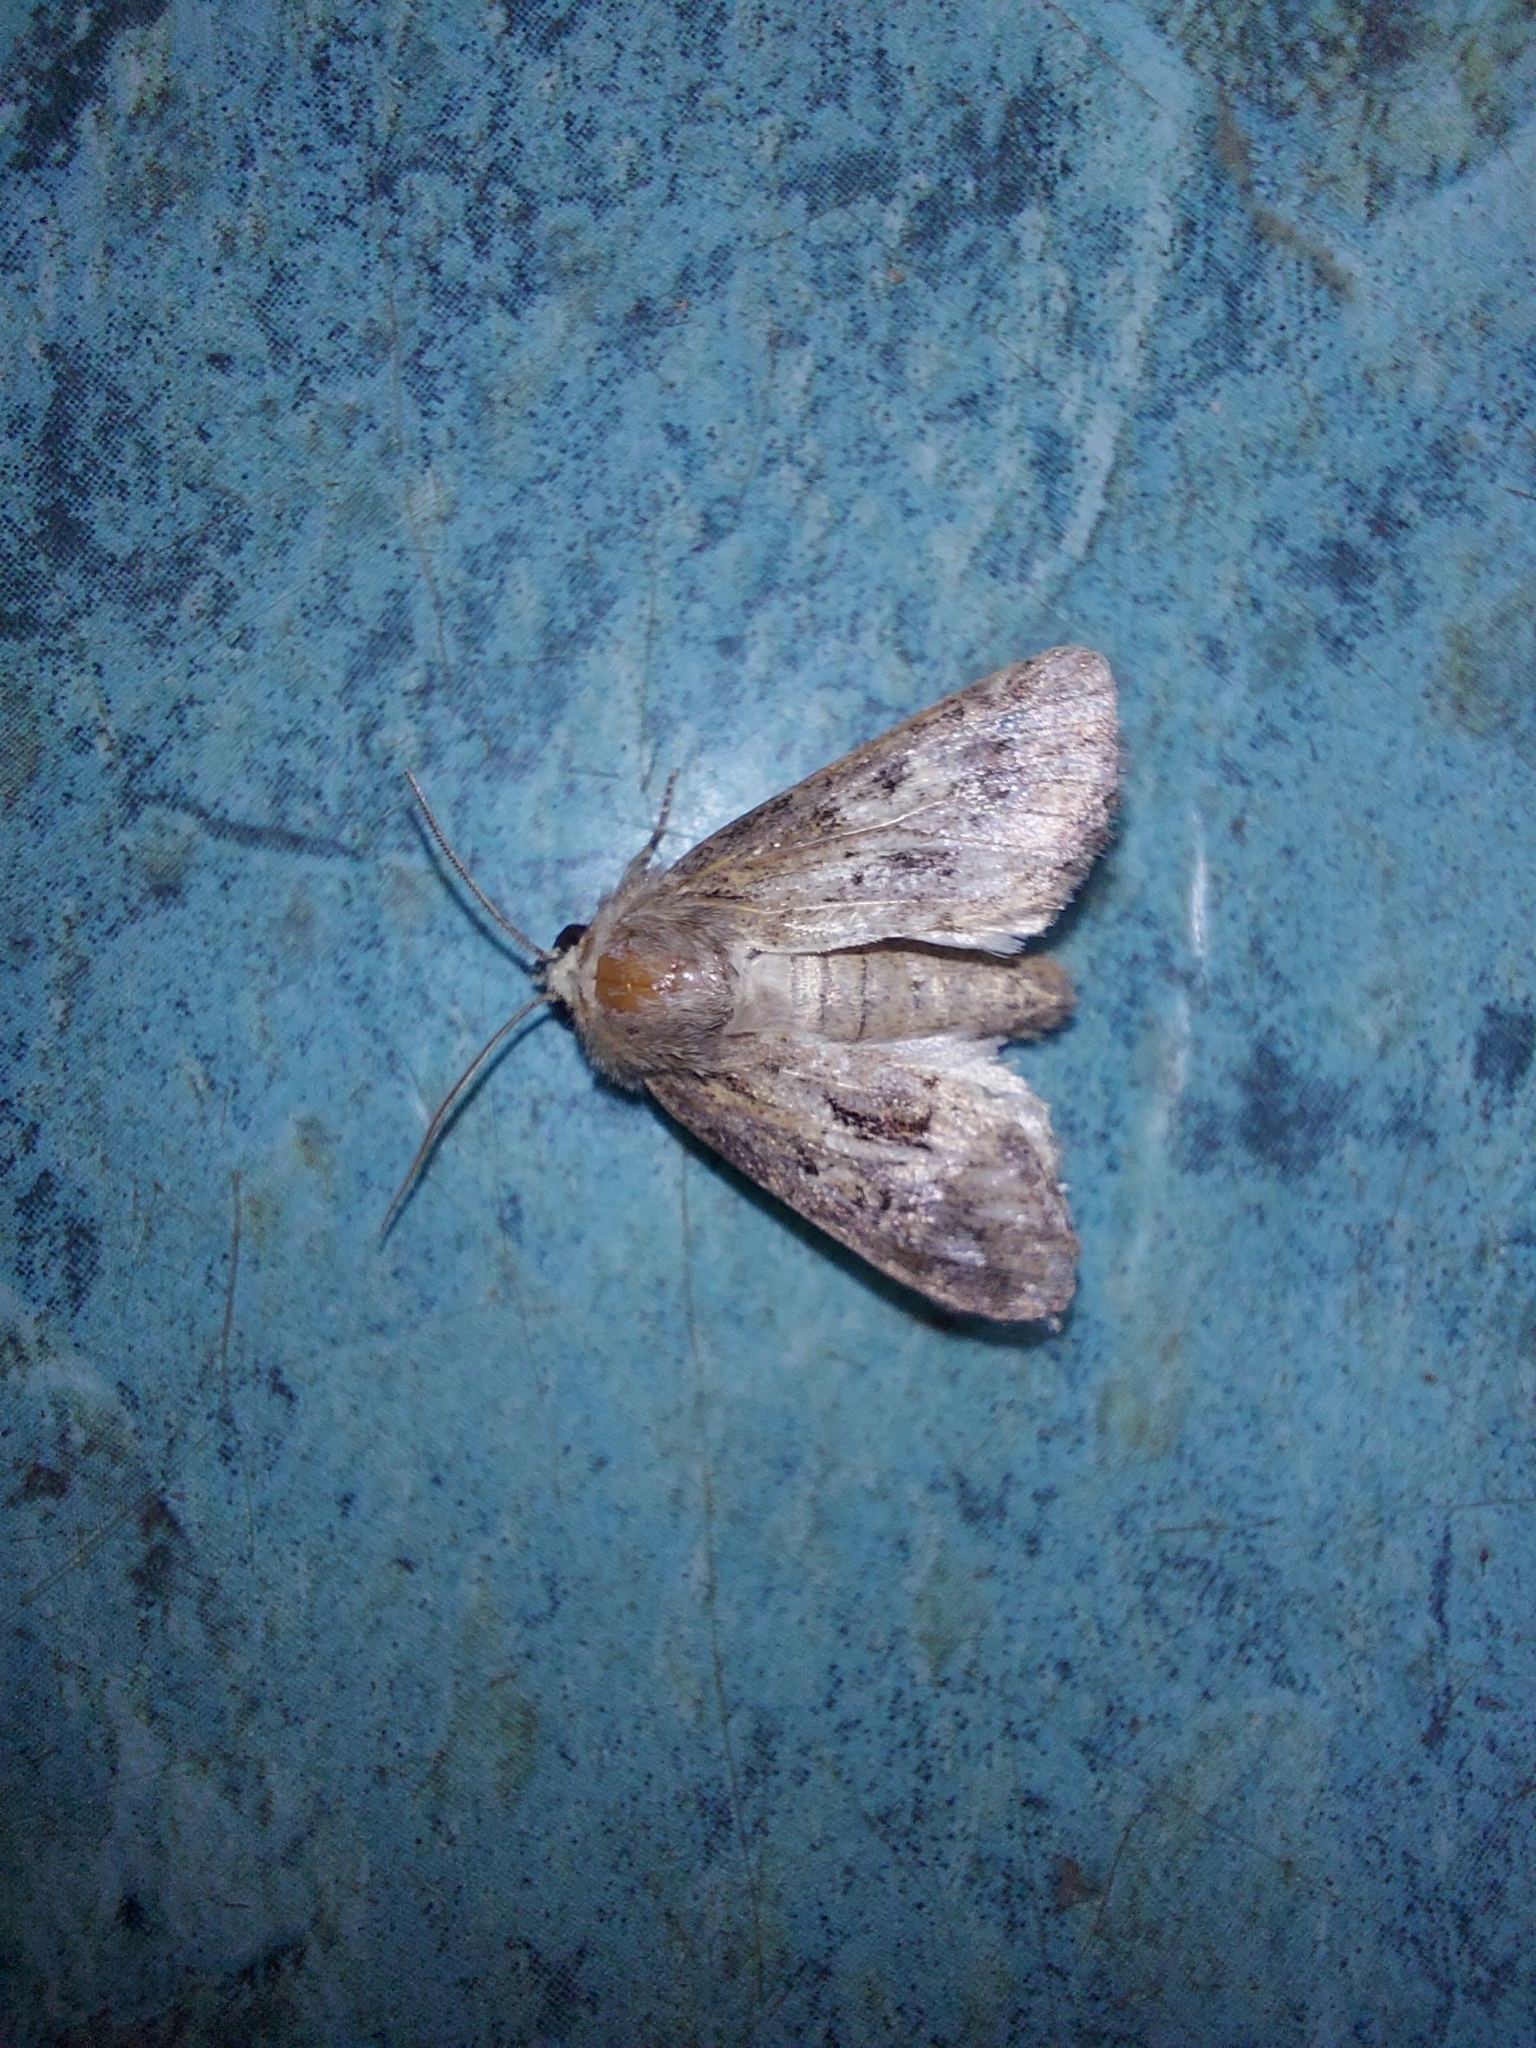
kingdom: Animalia
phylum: Arthropoda
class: Insecta
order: Lepidoptera
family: Noctuidae
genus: Luperina
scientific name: Luperina testacea
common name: Flounced rustic
